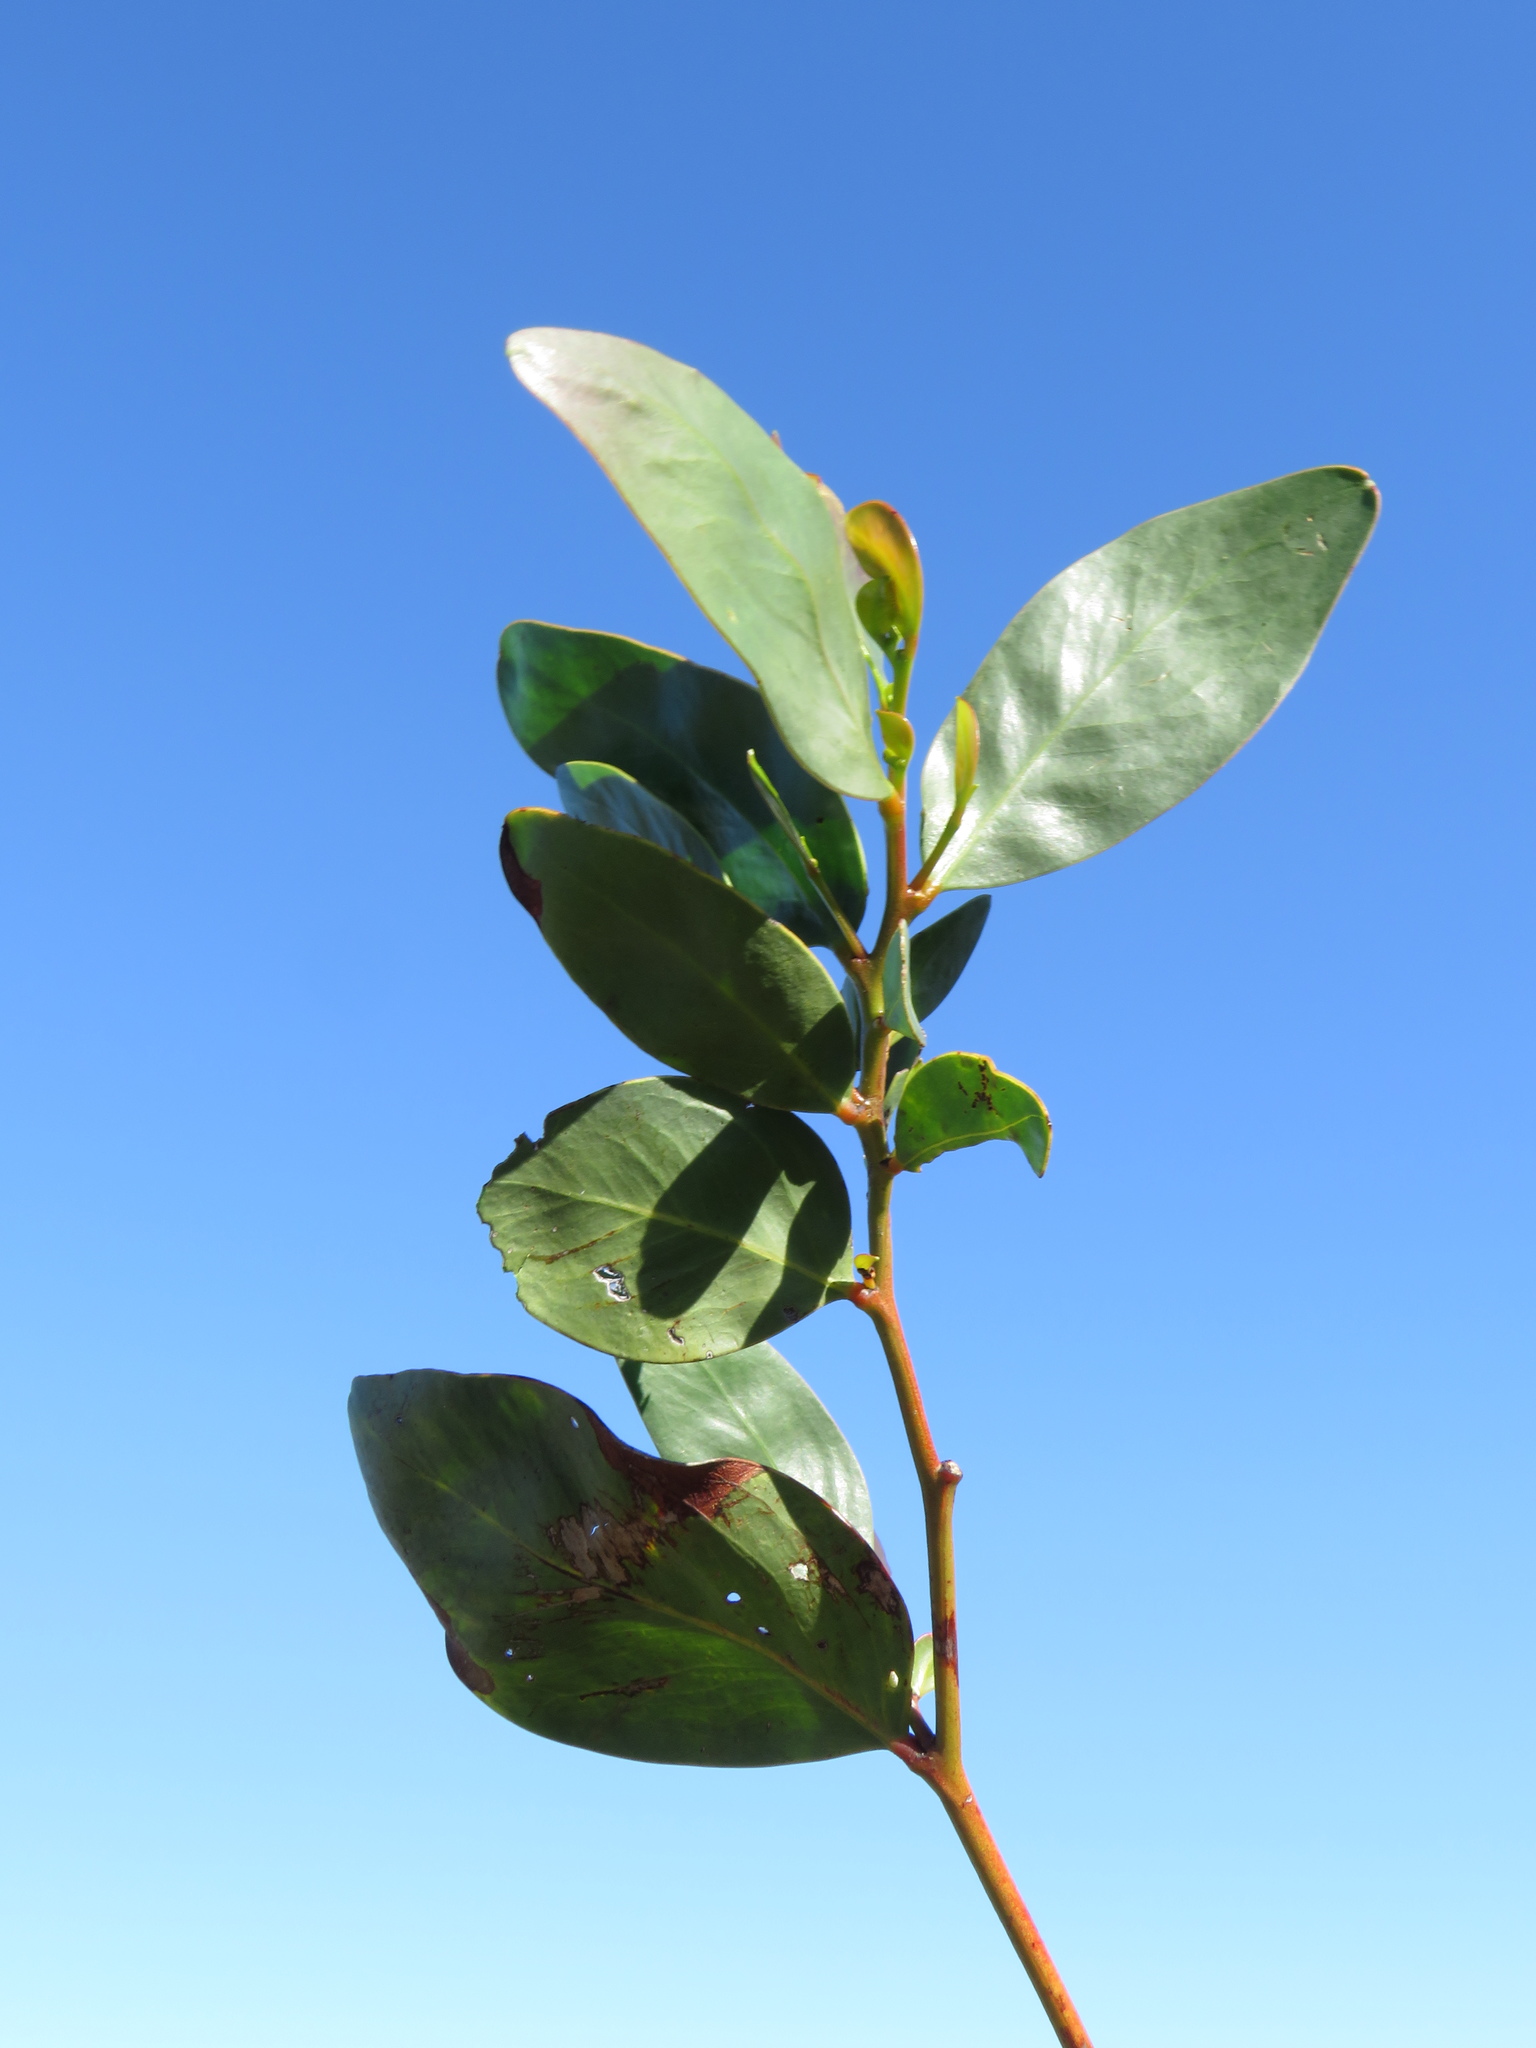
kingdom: Plantae
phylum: Tracheophyta
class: Magnoliopsida
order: Fabales
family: Fabaceae
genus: Acacia
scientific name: Acacia pycnantha
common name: Golden wattle
